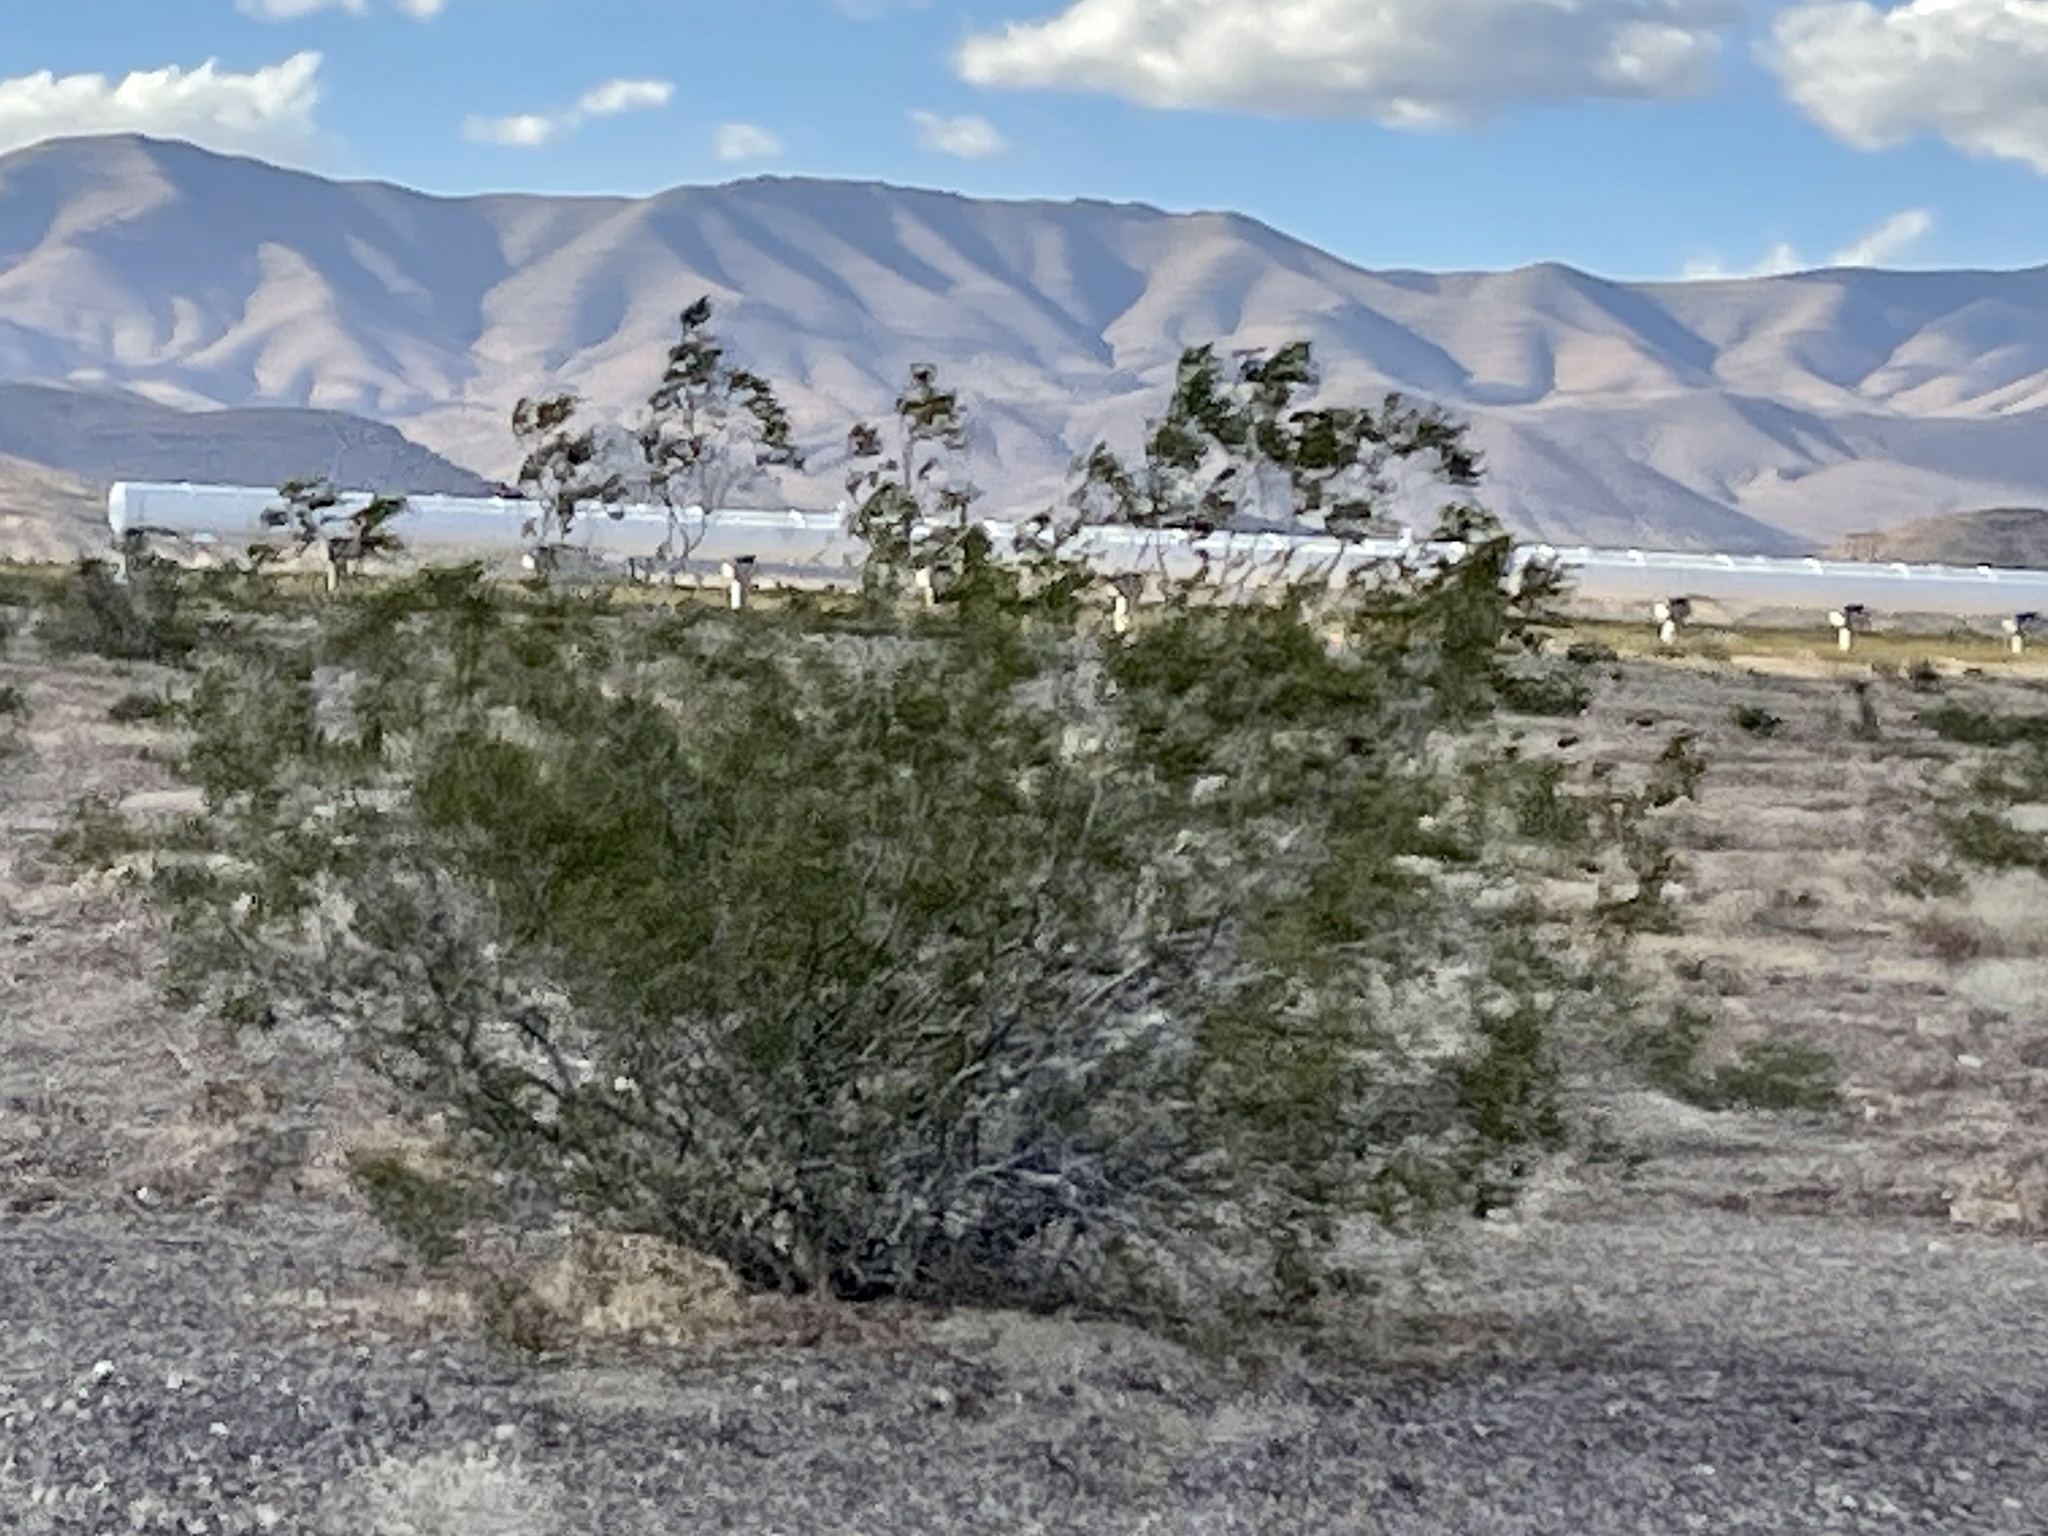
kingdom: Plantae
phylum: Tracheophyta
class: Magnoliopsida
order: Zygophyllales
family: Zygophyllaceae
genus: Larrea
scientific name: Larrea tridentata
